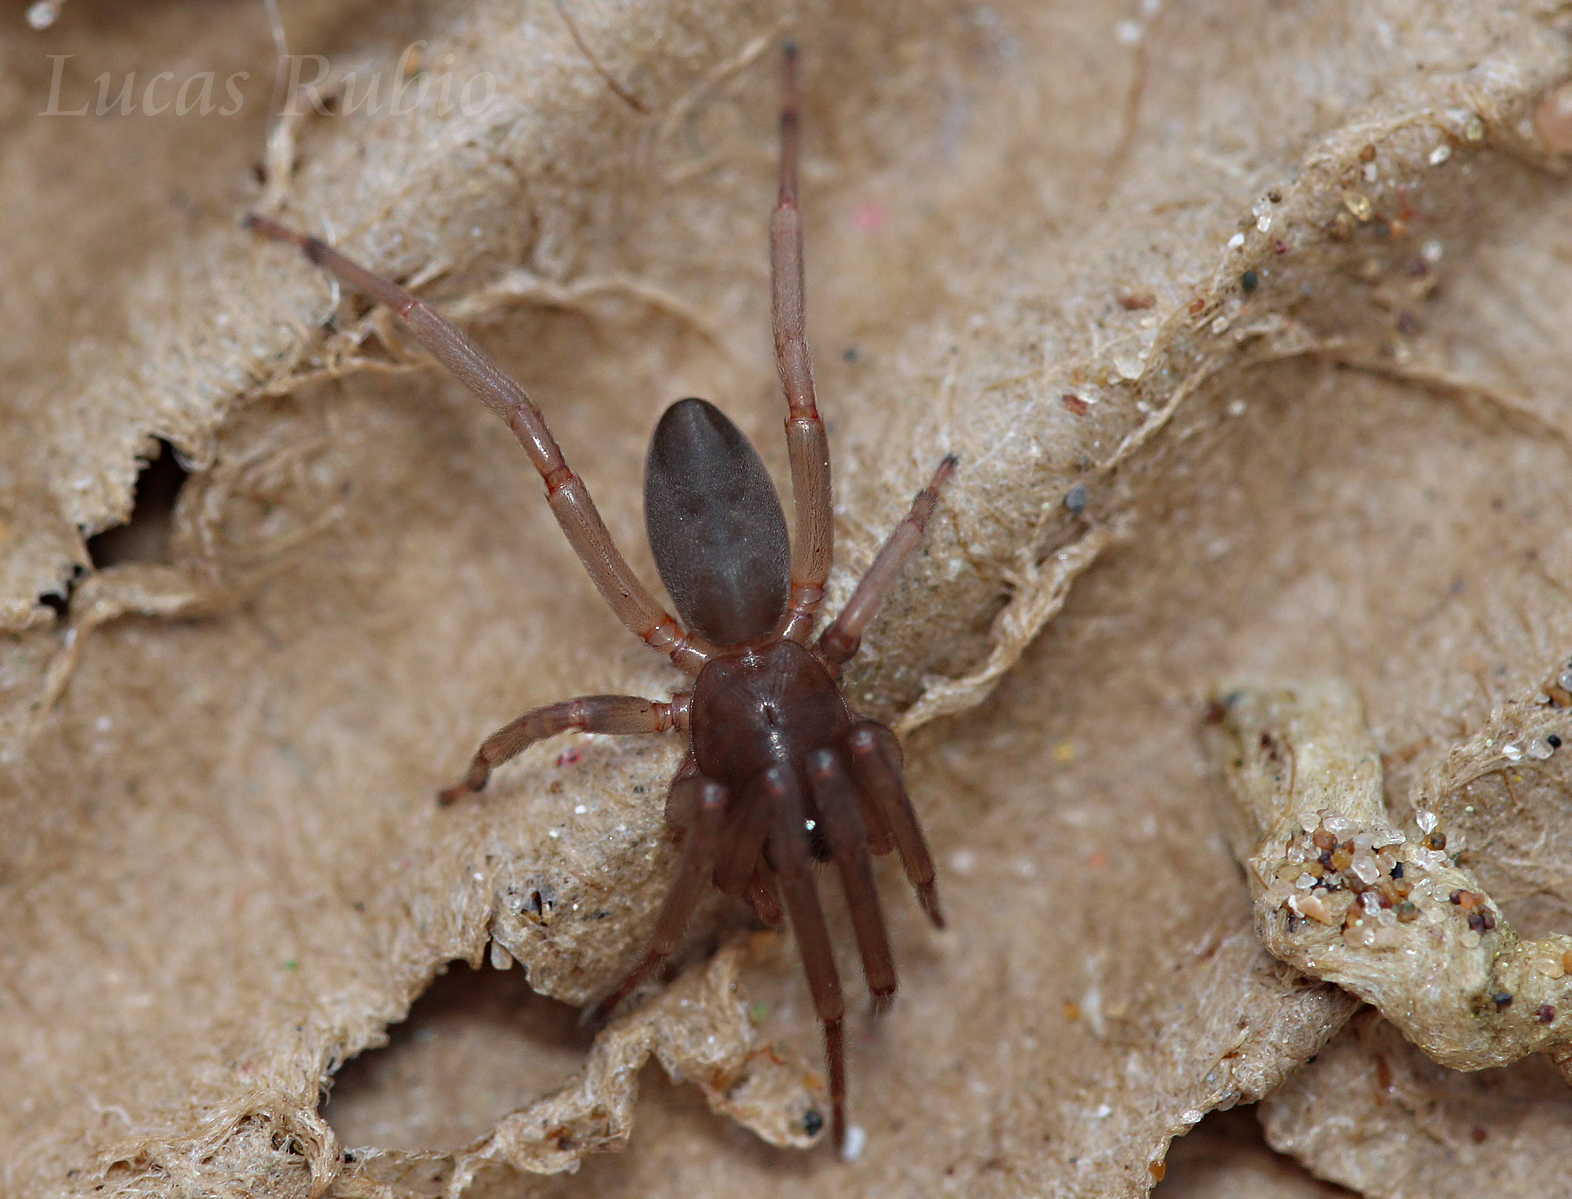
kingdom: Animalia
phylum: Arthropoda
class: Arachnida
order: Araneae
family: Trachelidae
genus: Meriola
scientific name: Meriola
